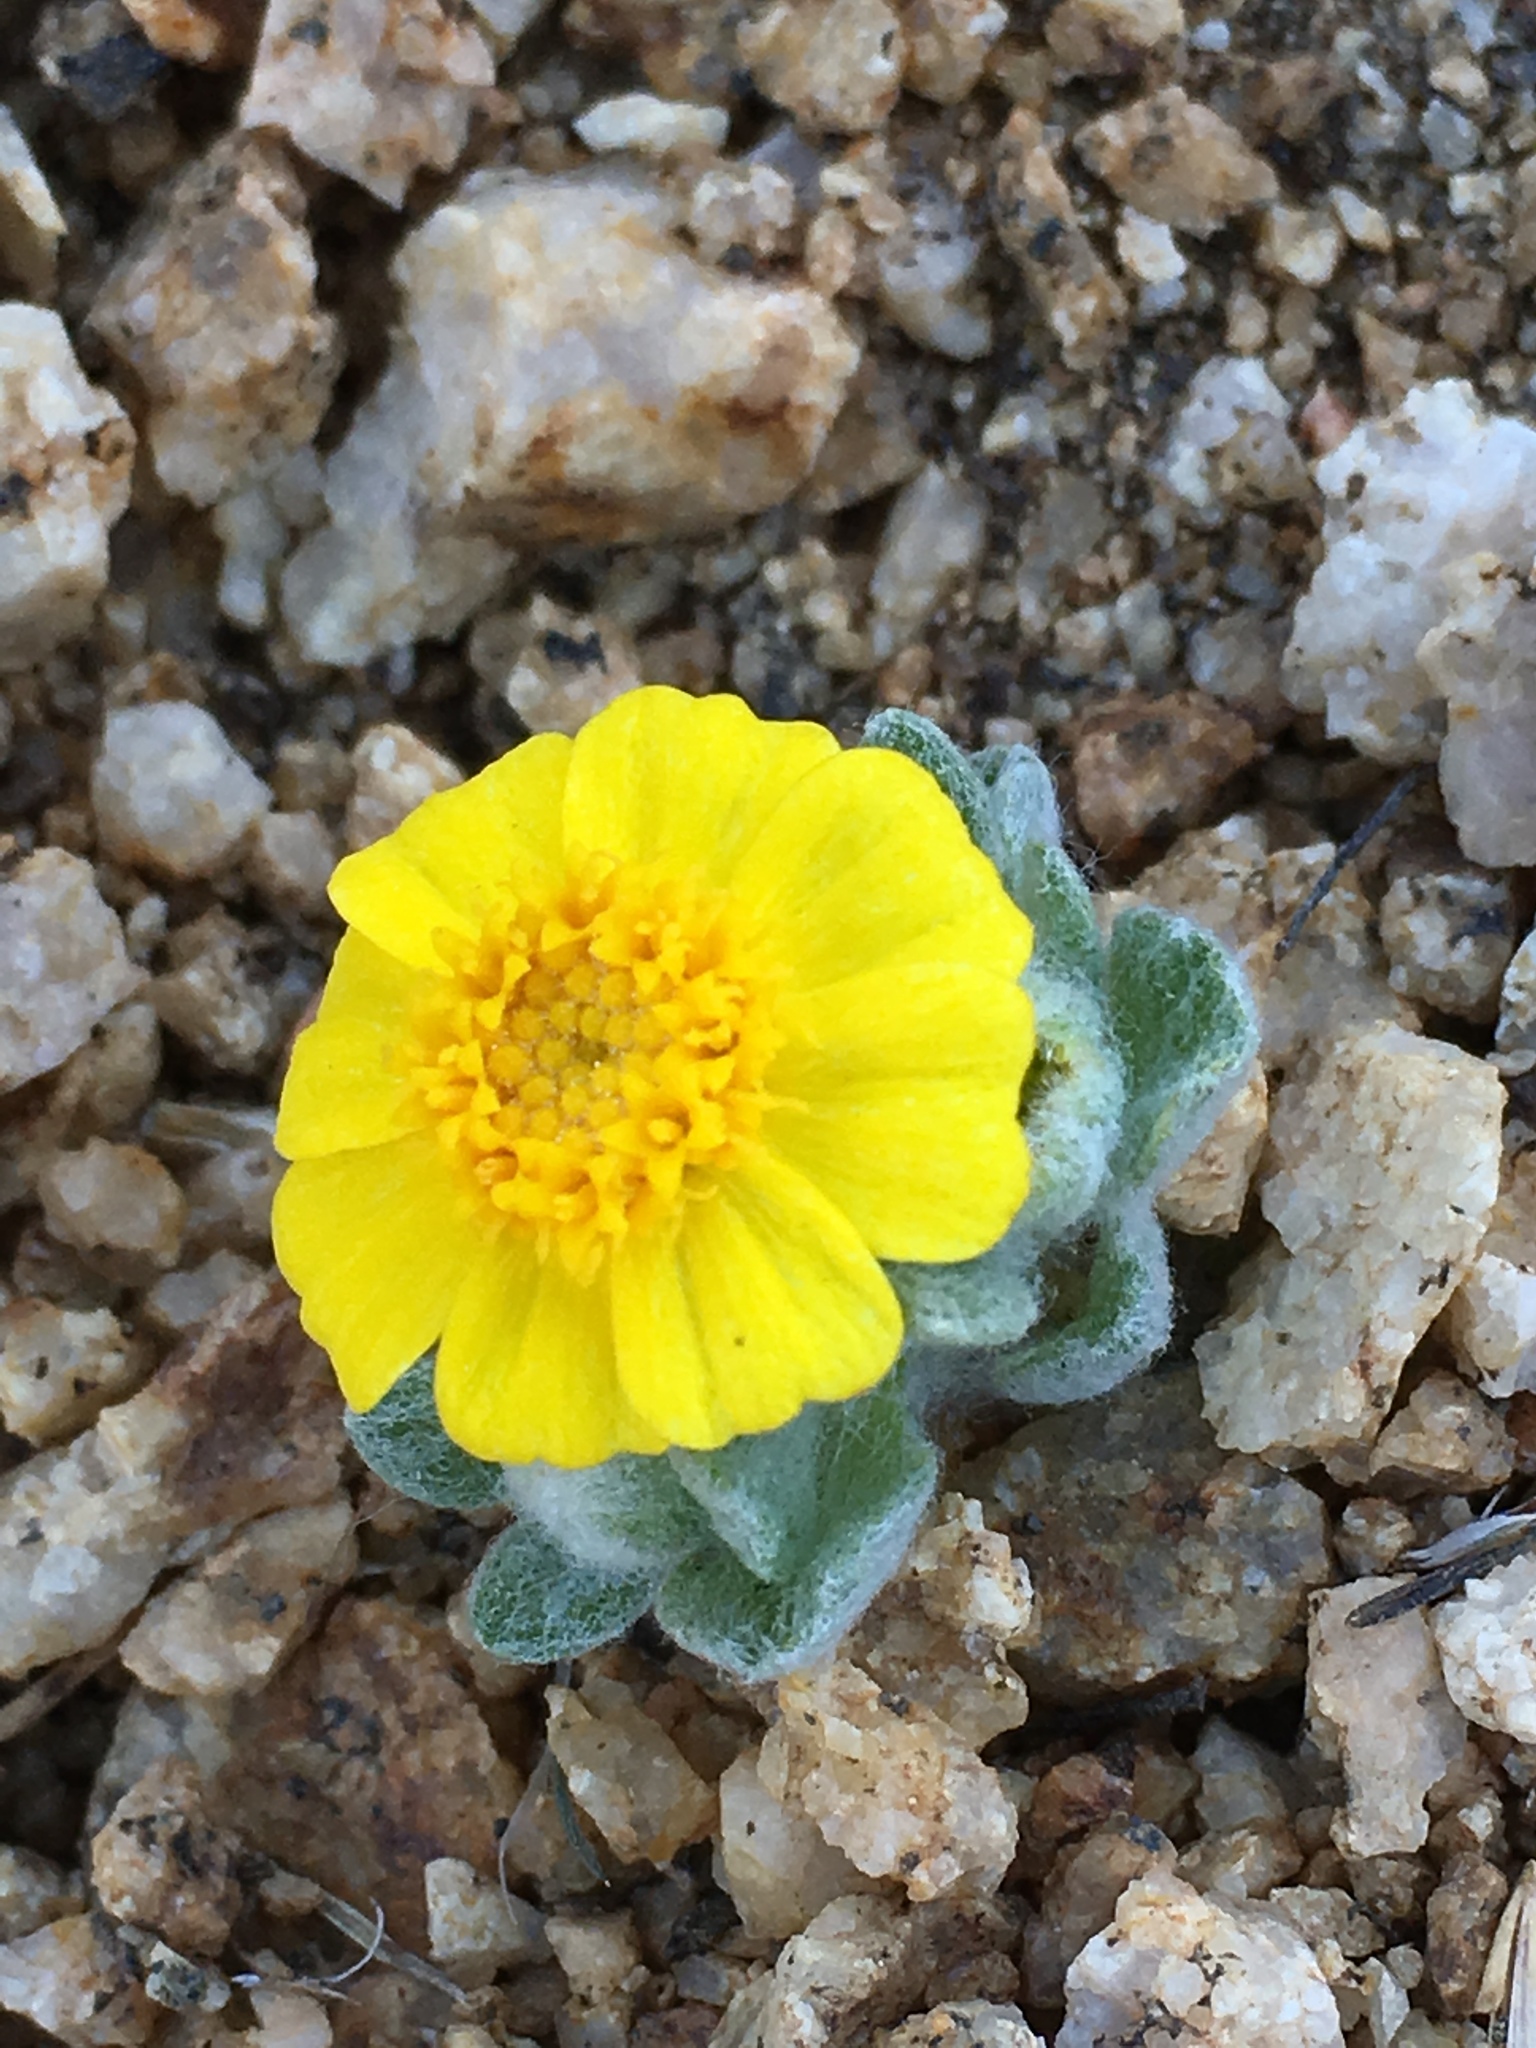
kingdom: Plantae
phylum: Tracheophyta
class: Magnoliopsida
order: Asterales
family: Asteraceae
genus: Eriophyllum
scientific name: Eriophyllum wallacei
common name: Wallace's woolly daisy
